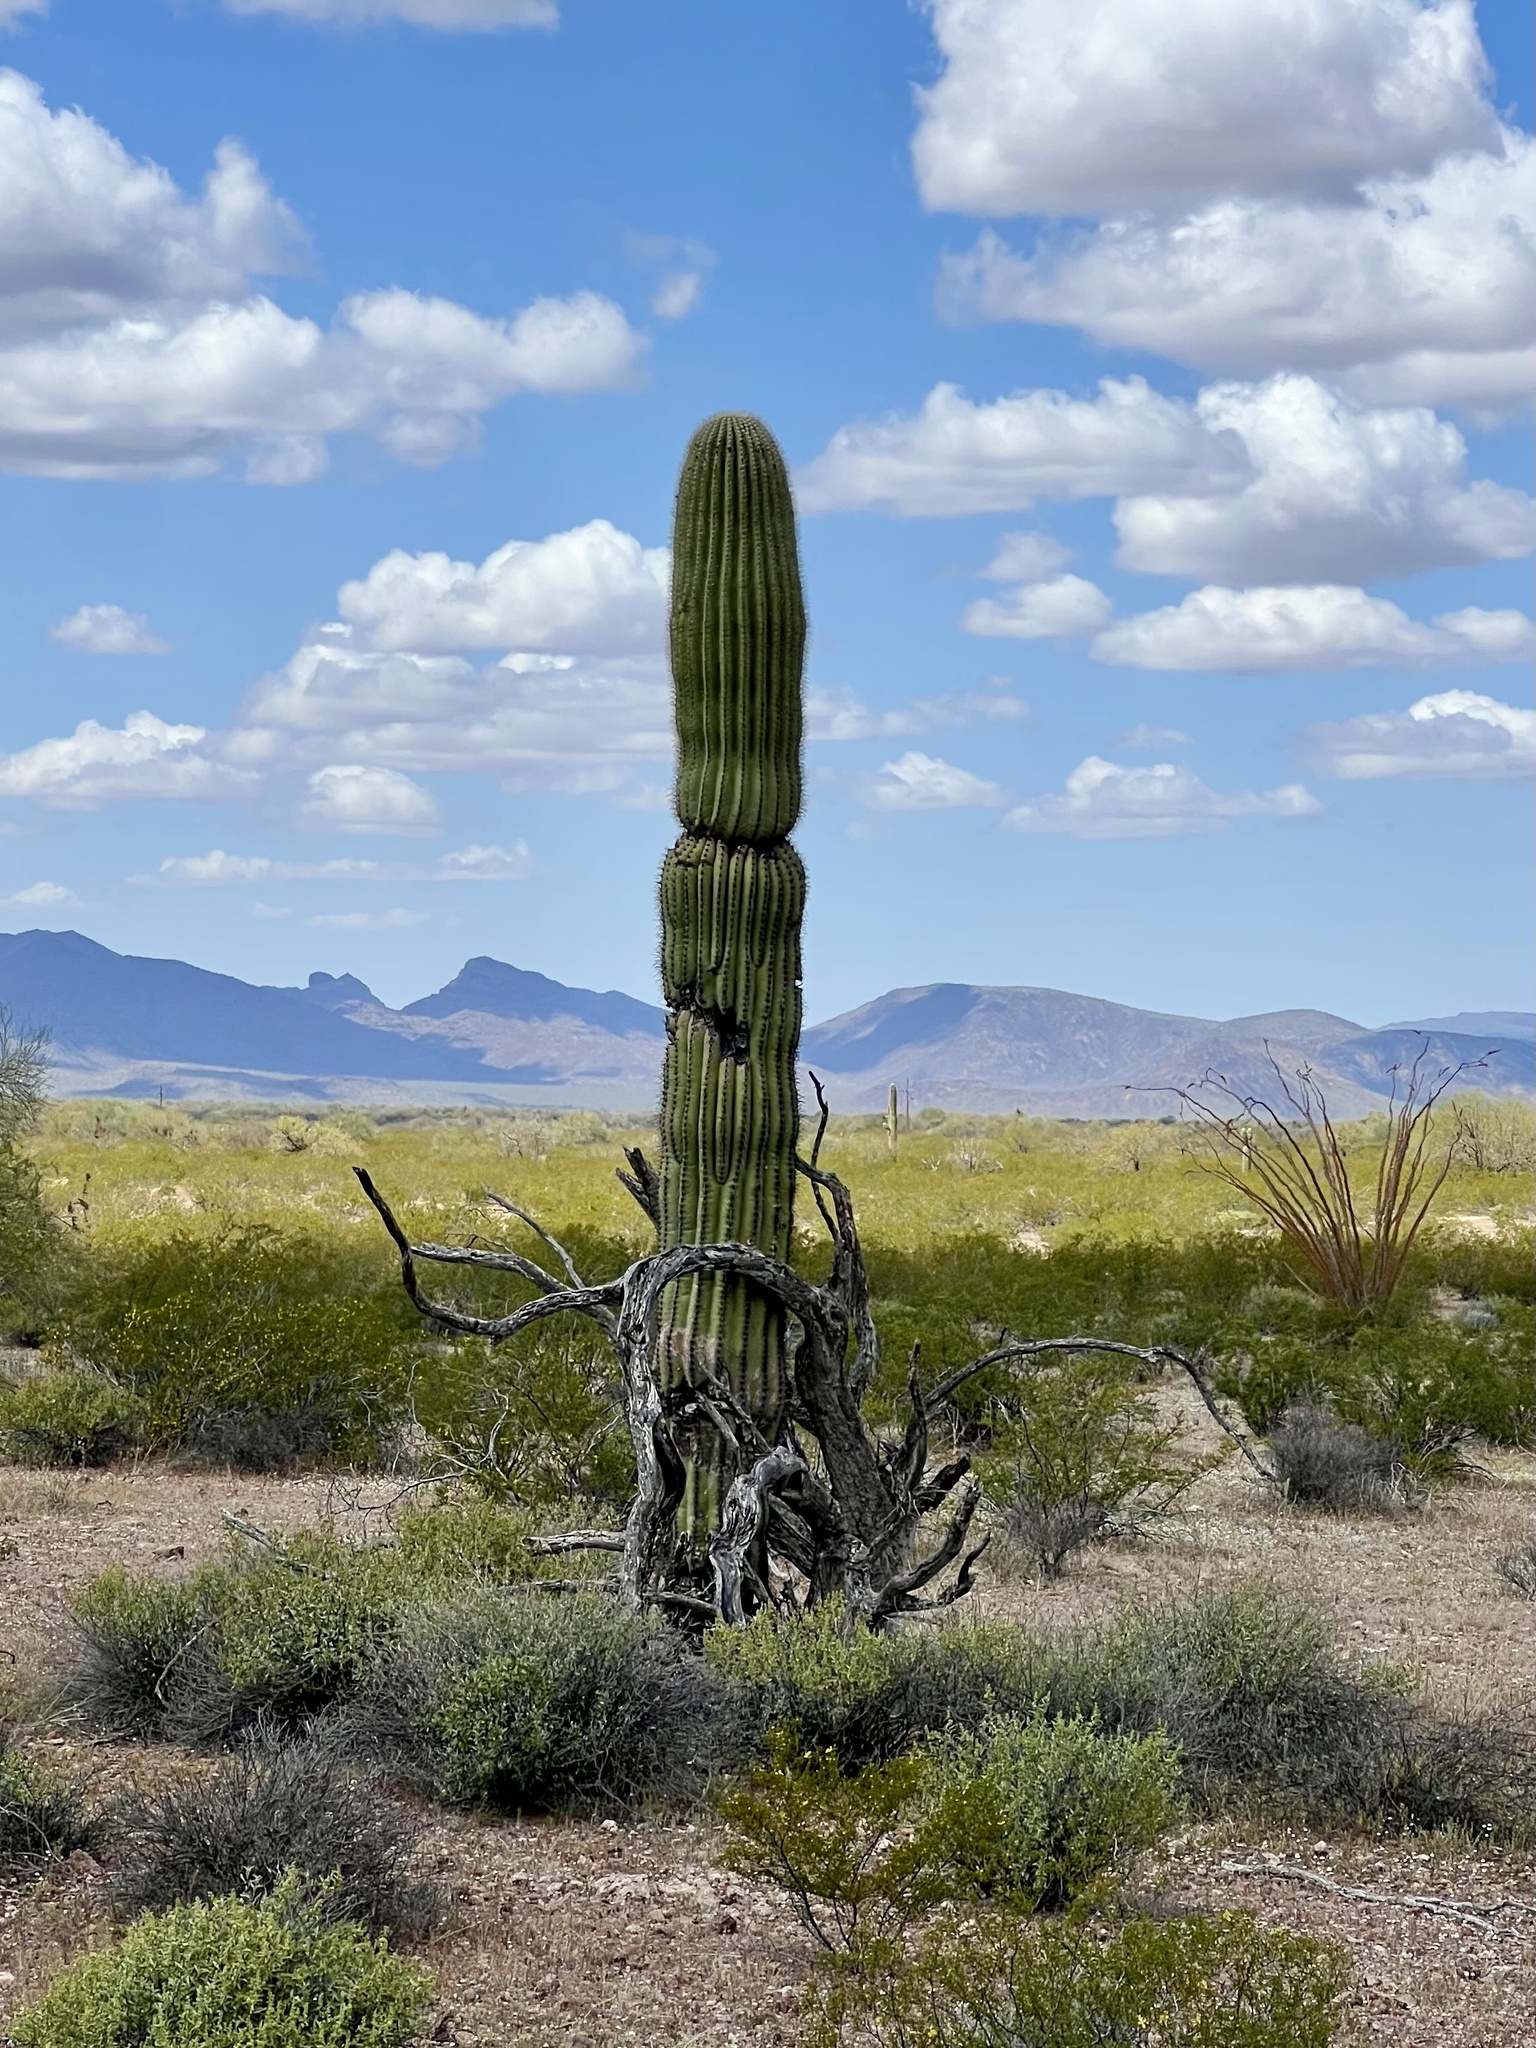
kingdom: Plantae
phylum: Tracheophyta
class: Magnoliopsida
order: Caryophyllales
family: Cactaceae
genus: Carnegiea
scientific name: Carnegiea gigantea
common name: Saguaro
